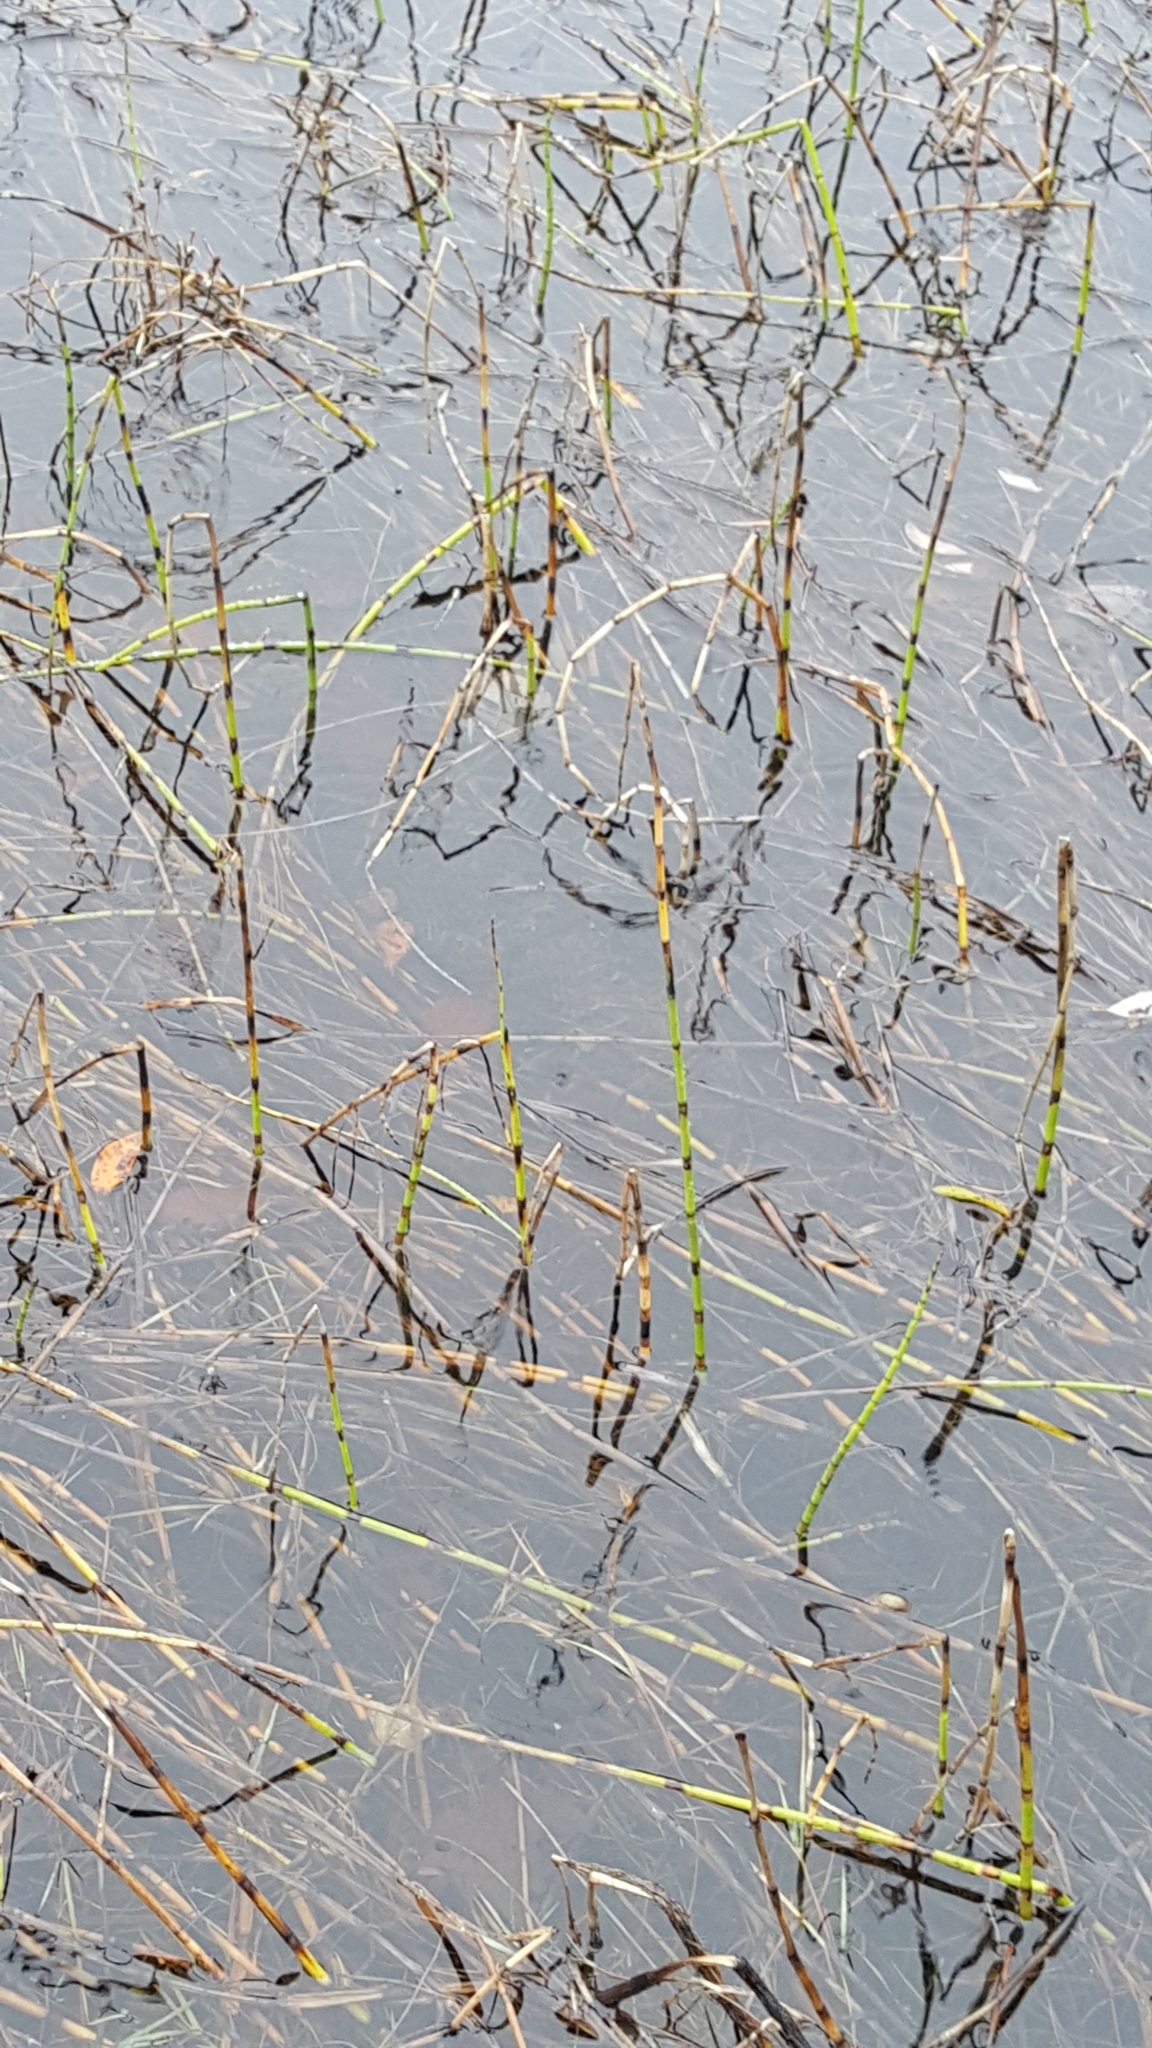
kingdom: Plantae
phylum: Tracheophyta
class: Polypodiopsida
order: Equisetales
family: Equisetaceae
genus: Equisetum
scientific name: Equisetum fluviatile
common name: Water horsetail
